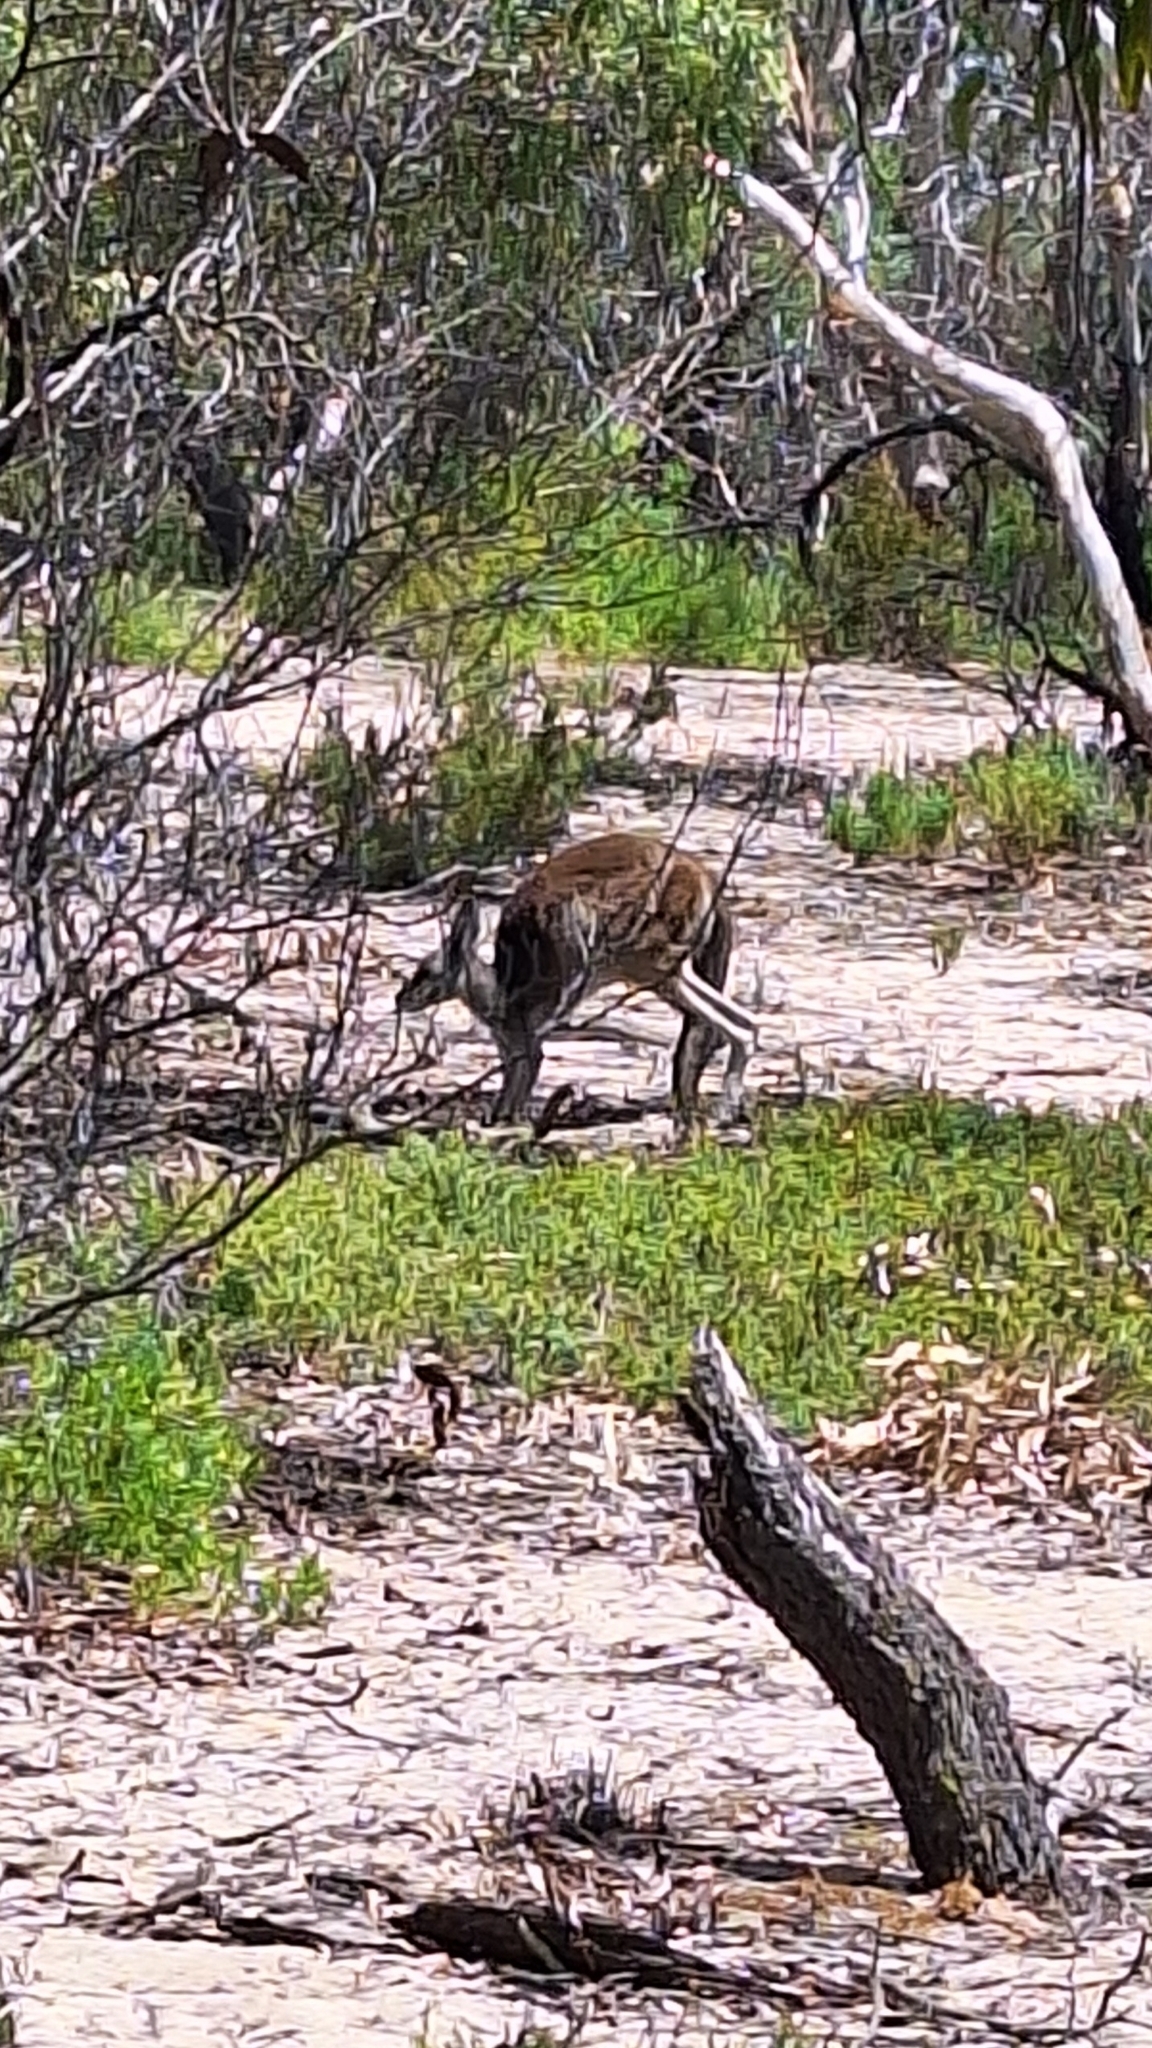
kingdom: Animalia
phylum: Chordata
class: Mammalia
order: Diprotodontia
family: Macropodidae
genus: Macropus
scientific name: Macropus fuliginosus
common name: Western grey kangaroo
